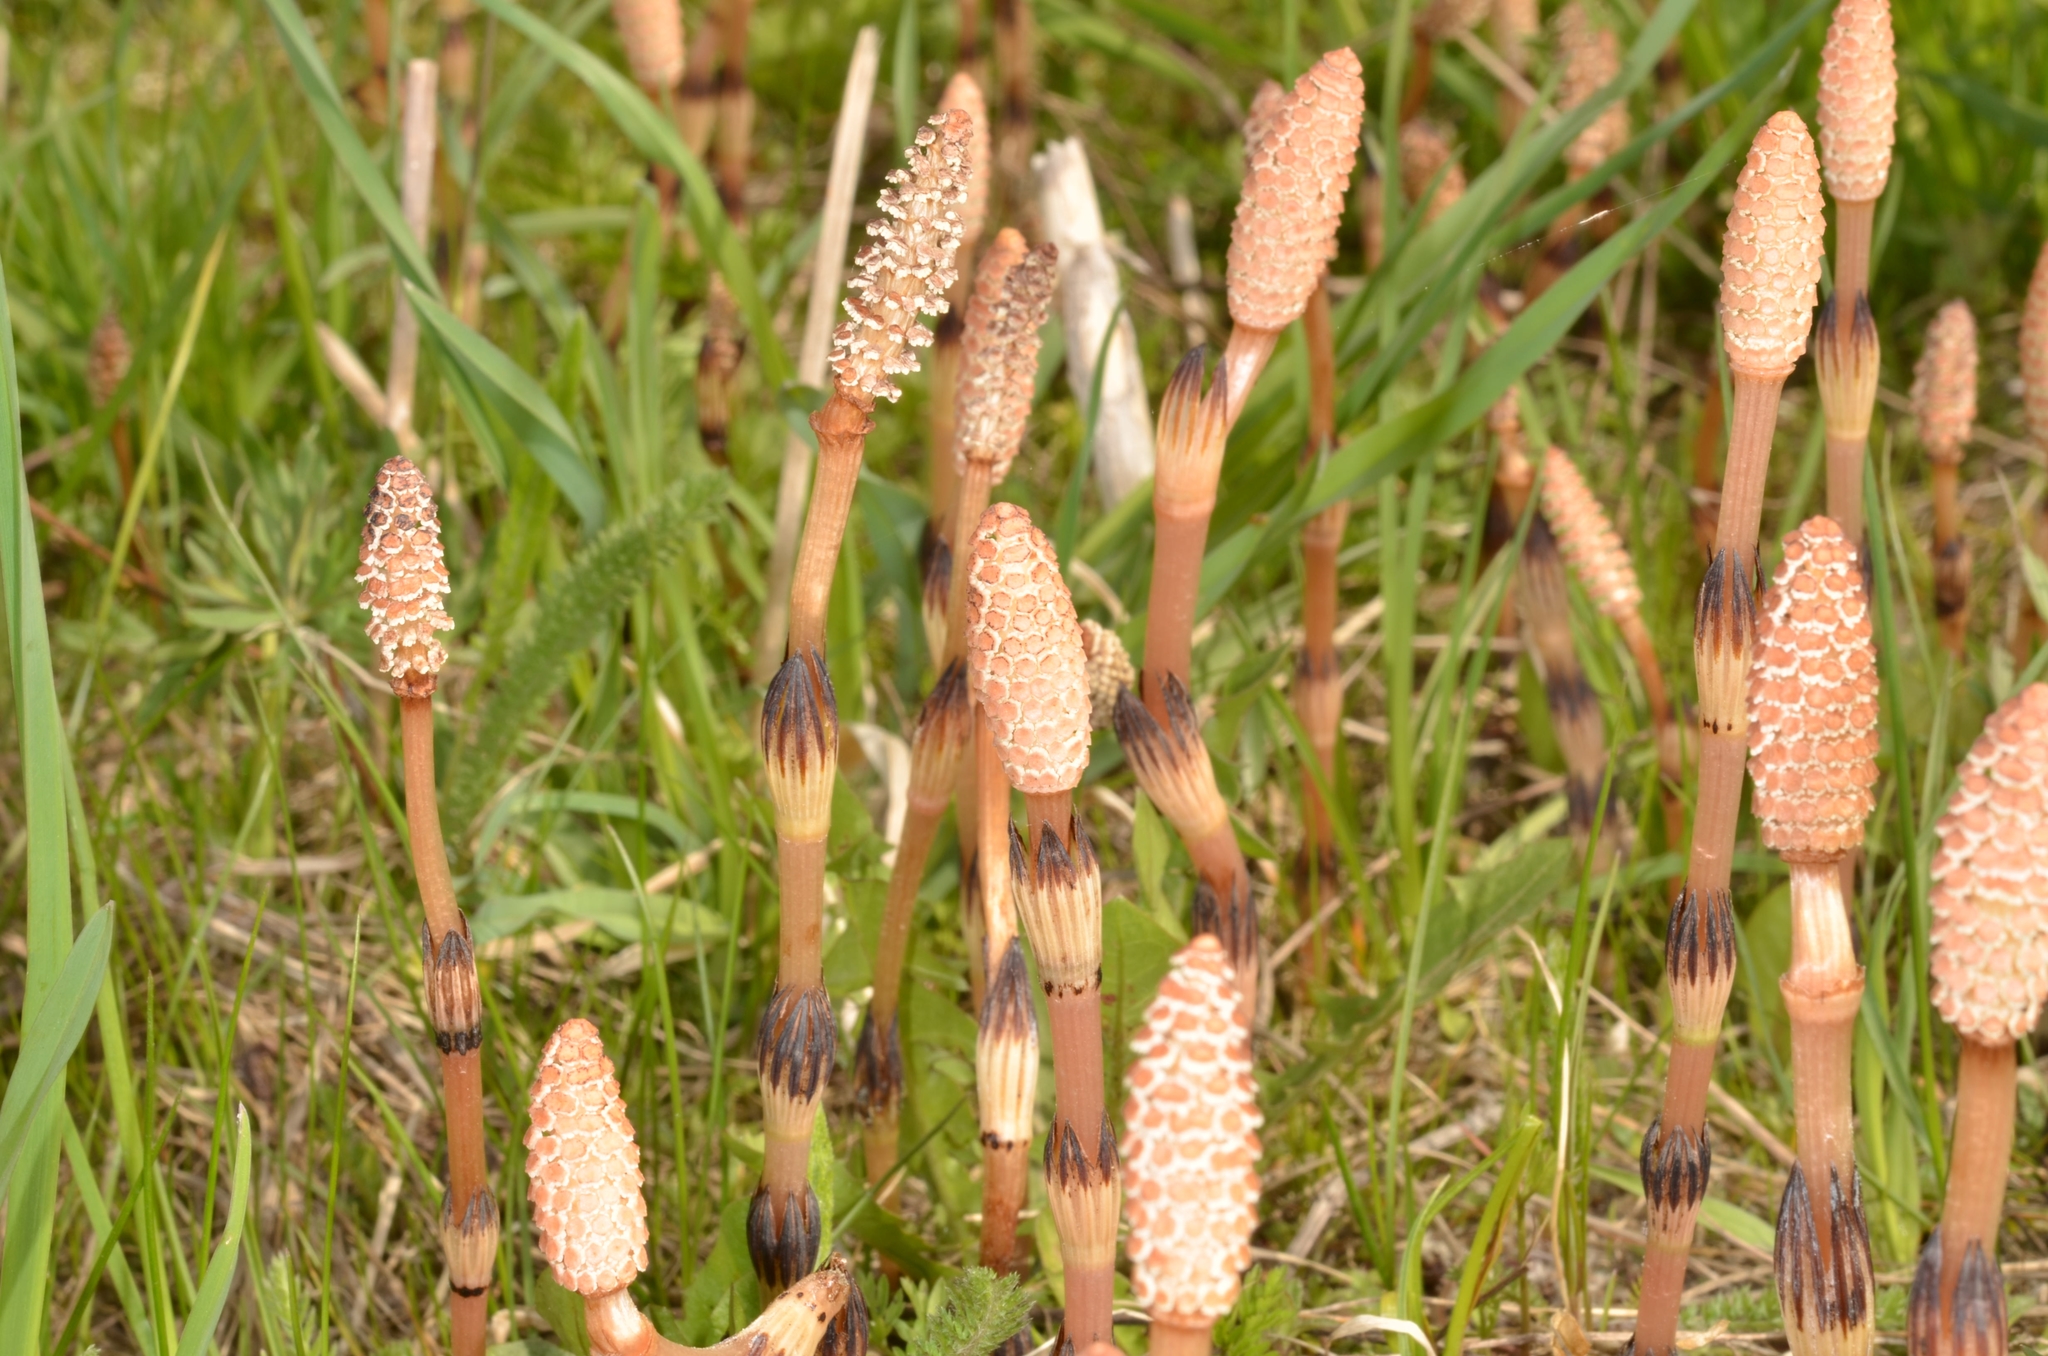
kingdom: Plantae
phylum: Tracheophyta
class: Polypodiopsida
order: Equisetales
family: Equisetaceae
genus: Equisetum
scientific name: Equisetum arvense
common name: Field horsetail
